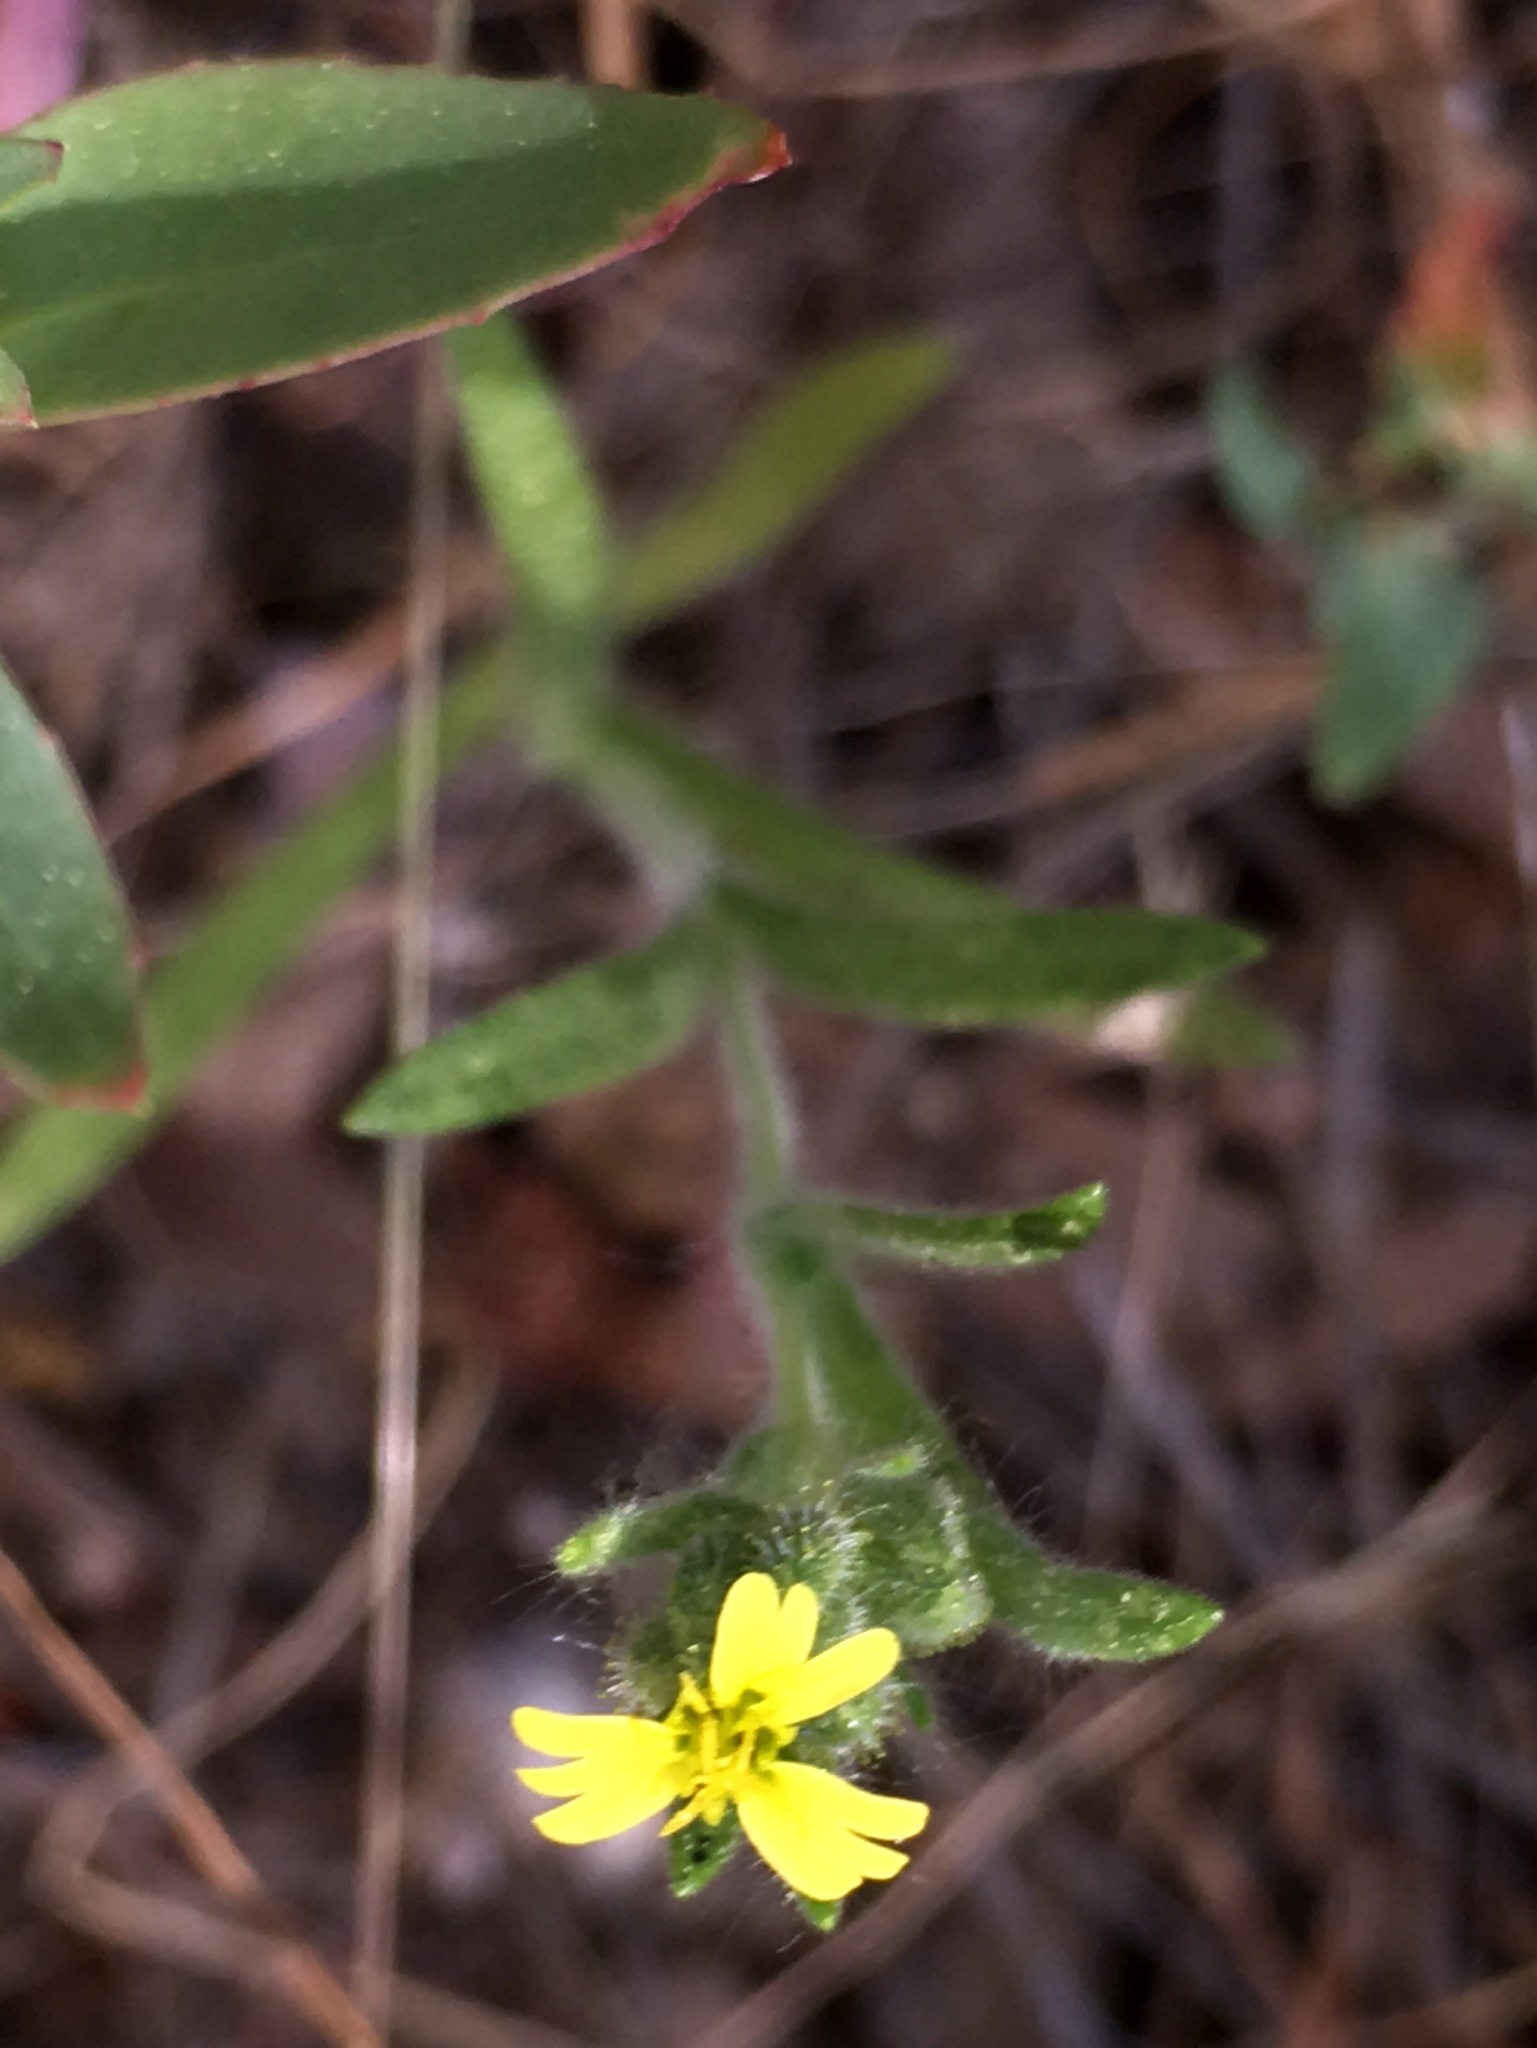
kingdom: Plantae
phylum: Tracheophyta
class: Magnoliopsida
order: Asterales
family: Asteraceae
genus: Madia
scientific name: Madia gracilis
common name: Grassy tarweed
